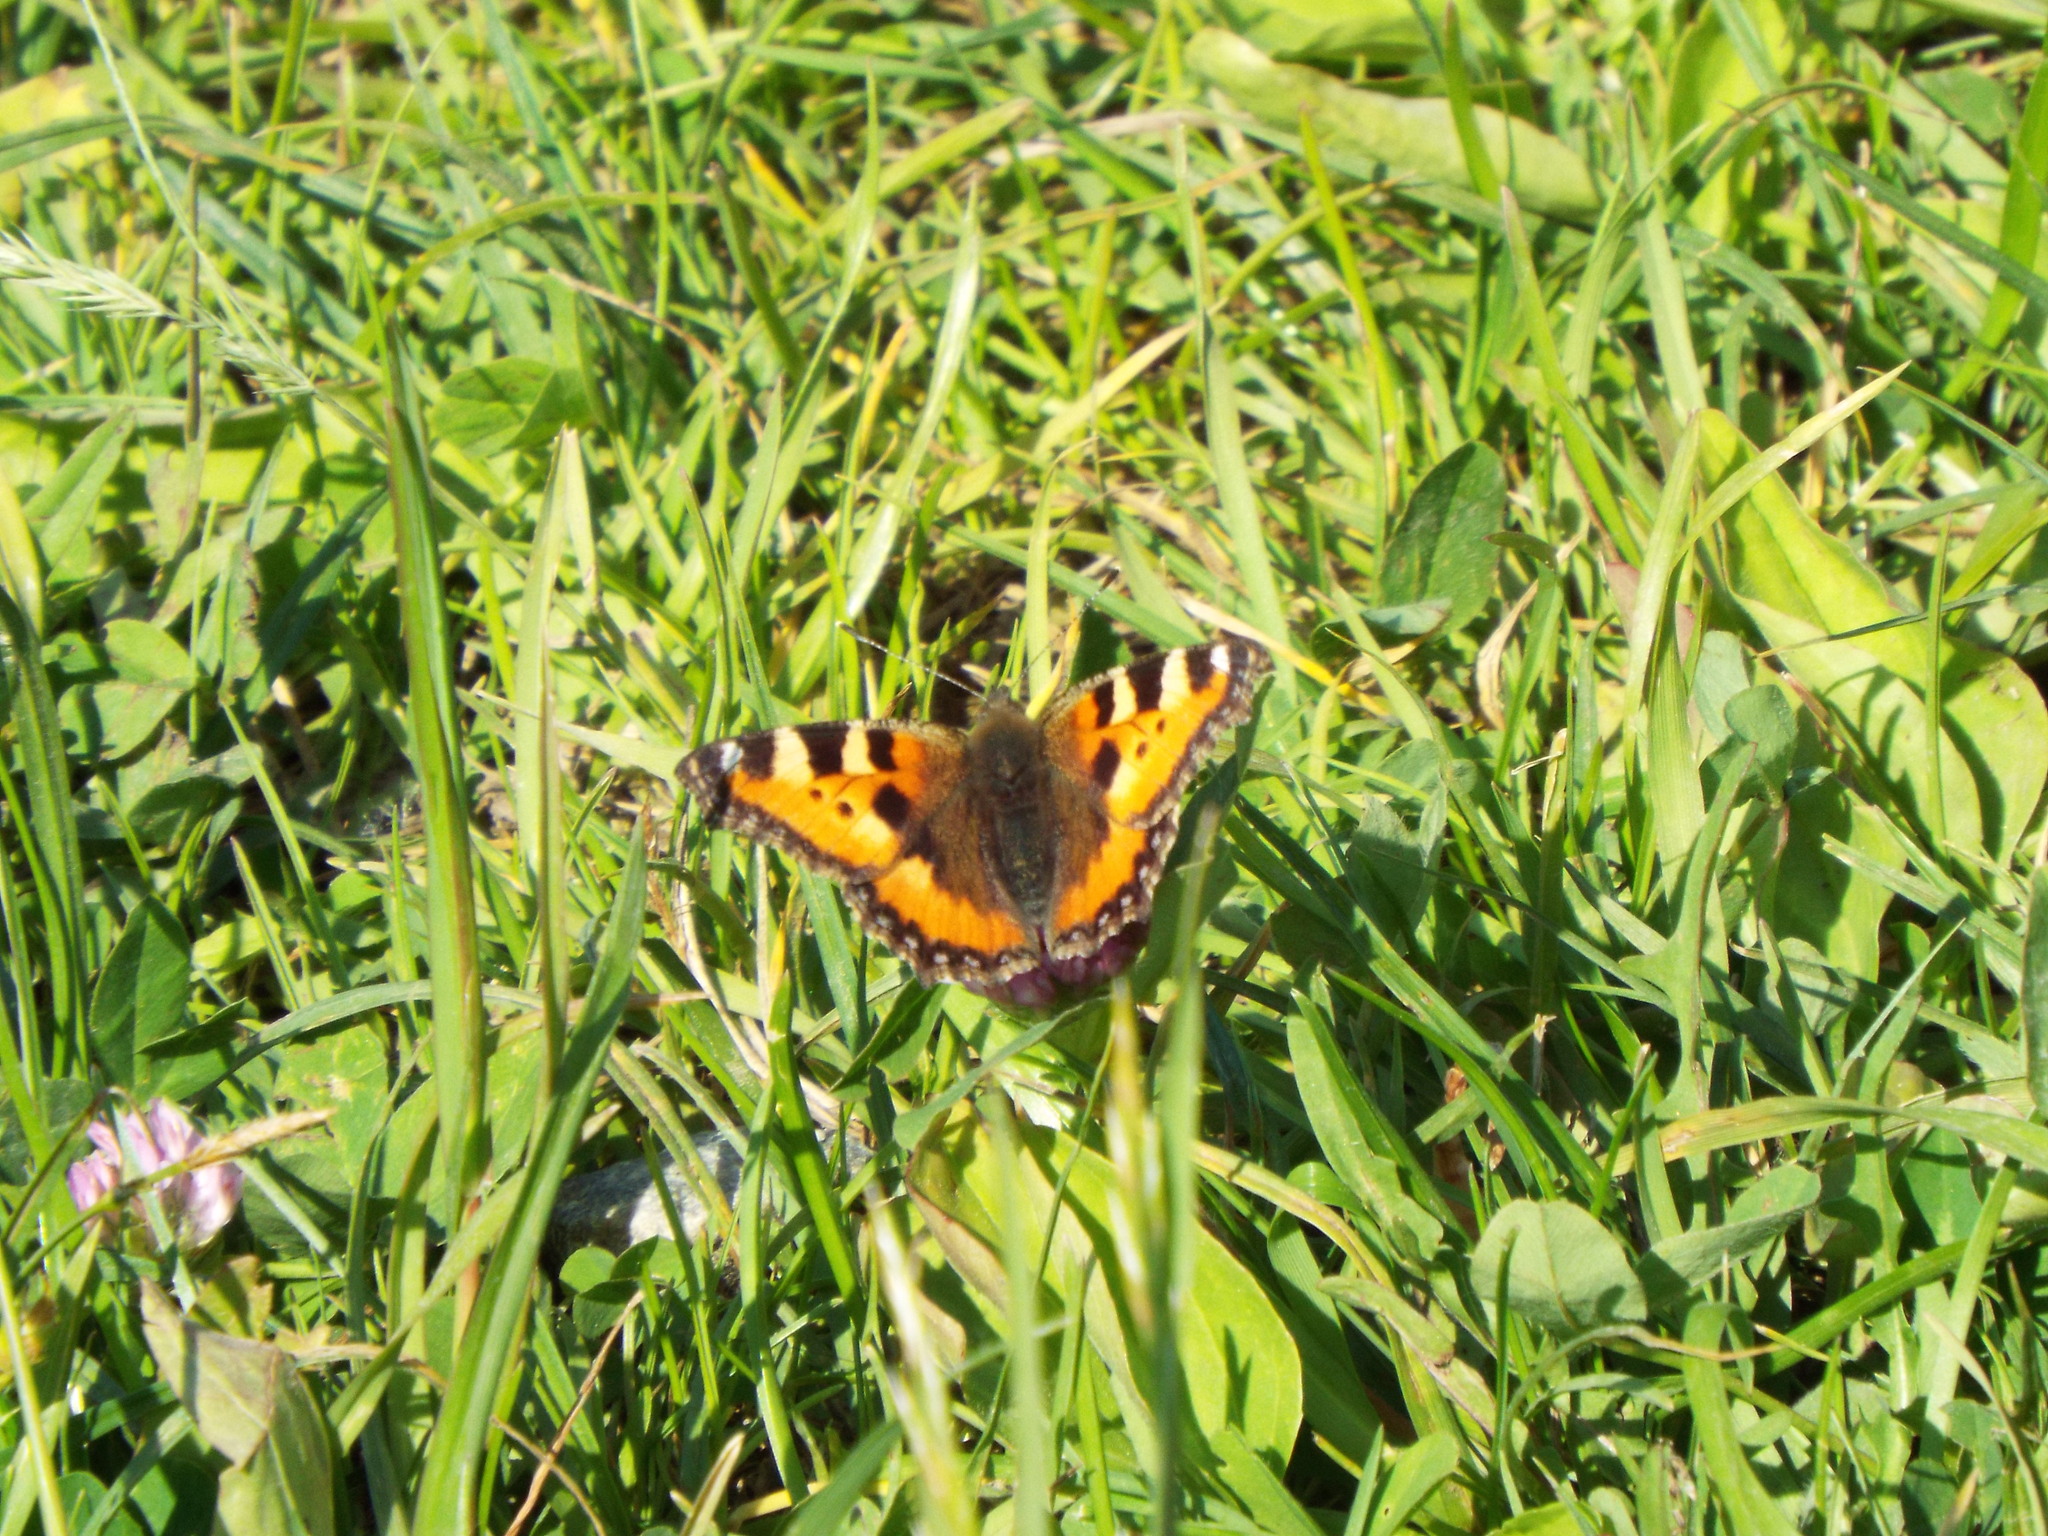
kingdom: Animalia
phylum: Arthropoda
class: Insecta
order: Lepidoptera
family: Nymphalidae
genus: Aglais
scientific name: Aglais urticae
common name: Small tortoiseshell
